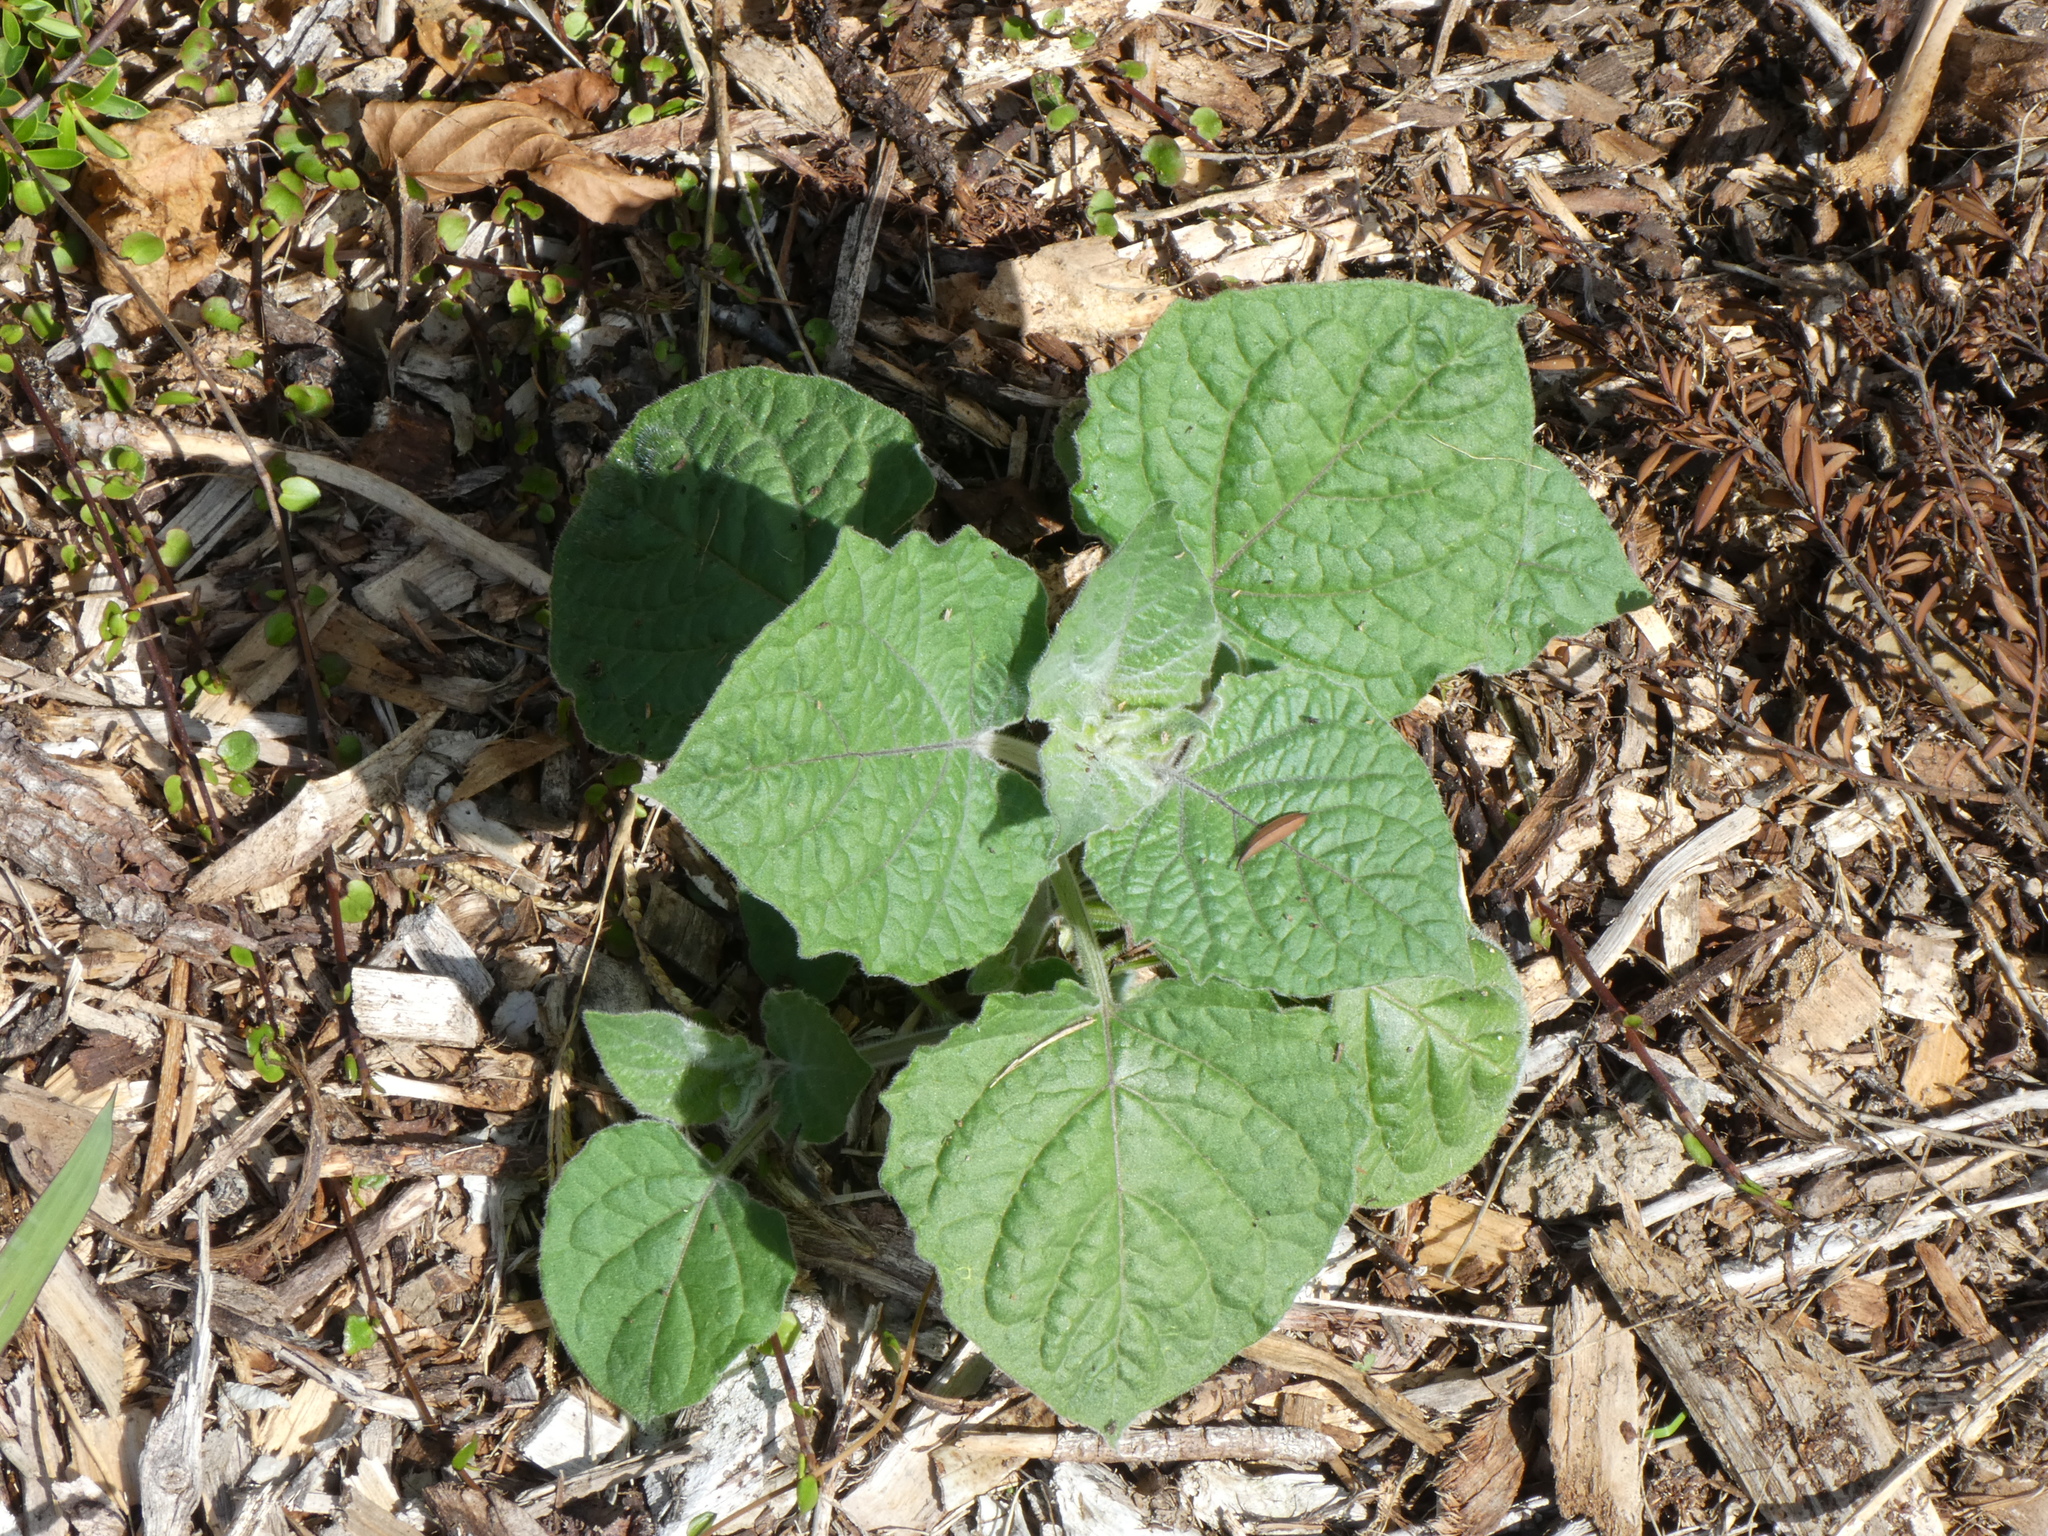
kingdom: Plantae
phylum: Tracheophyta
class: Magnoliopsida
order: Solanales
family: Solanaceae
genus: Physalis
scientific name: Physalis peruviana
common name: Cape-gooseberry
